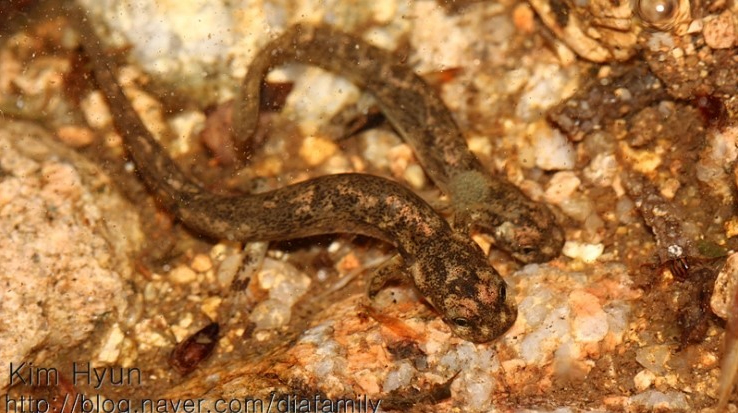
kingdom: Animalia
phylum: Chordata
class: Amphibia
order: Caudata
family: Hynobiidae
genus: Onychodactylus
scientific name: Onychodactylus koreanus
